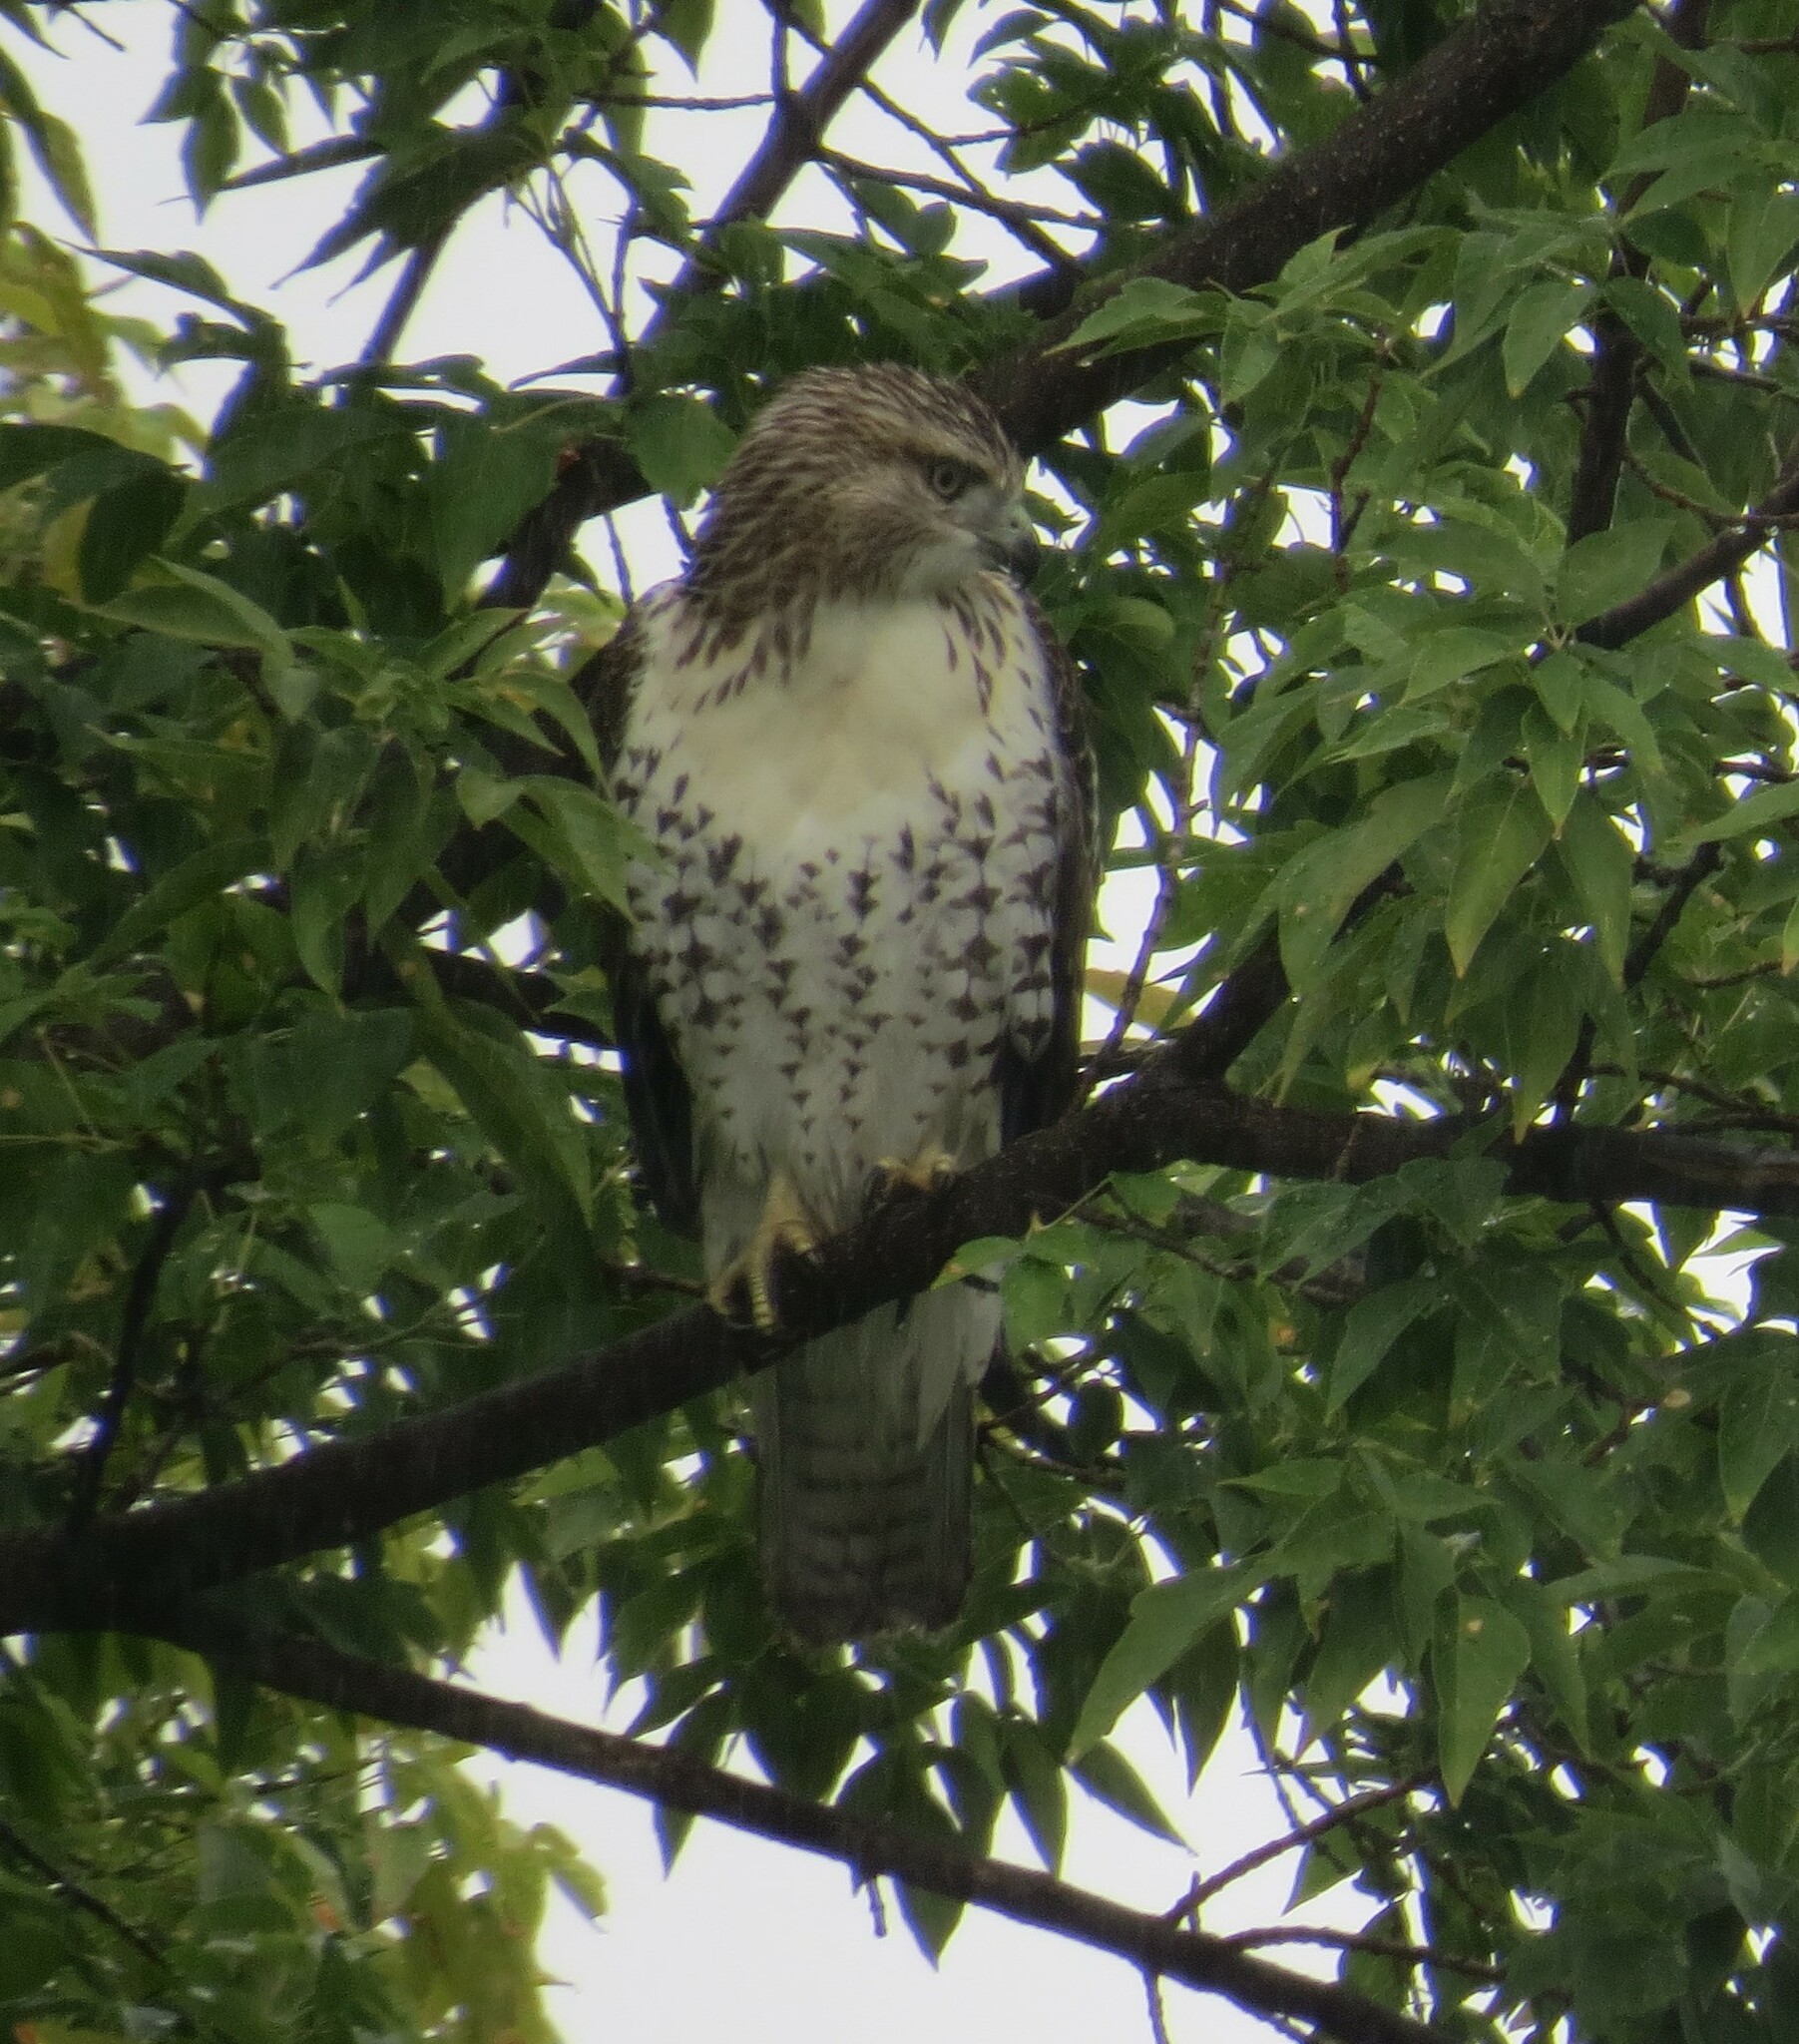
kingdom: Animalia
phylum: Chordata
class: Aves
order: Accipitriformes
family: Accipitridae
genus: Buteo
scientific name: Buteo jamaicensis
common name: Red-tailed hawk
